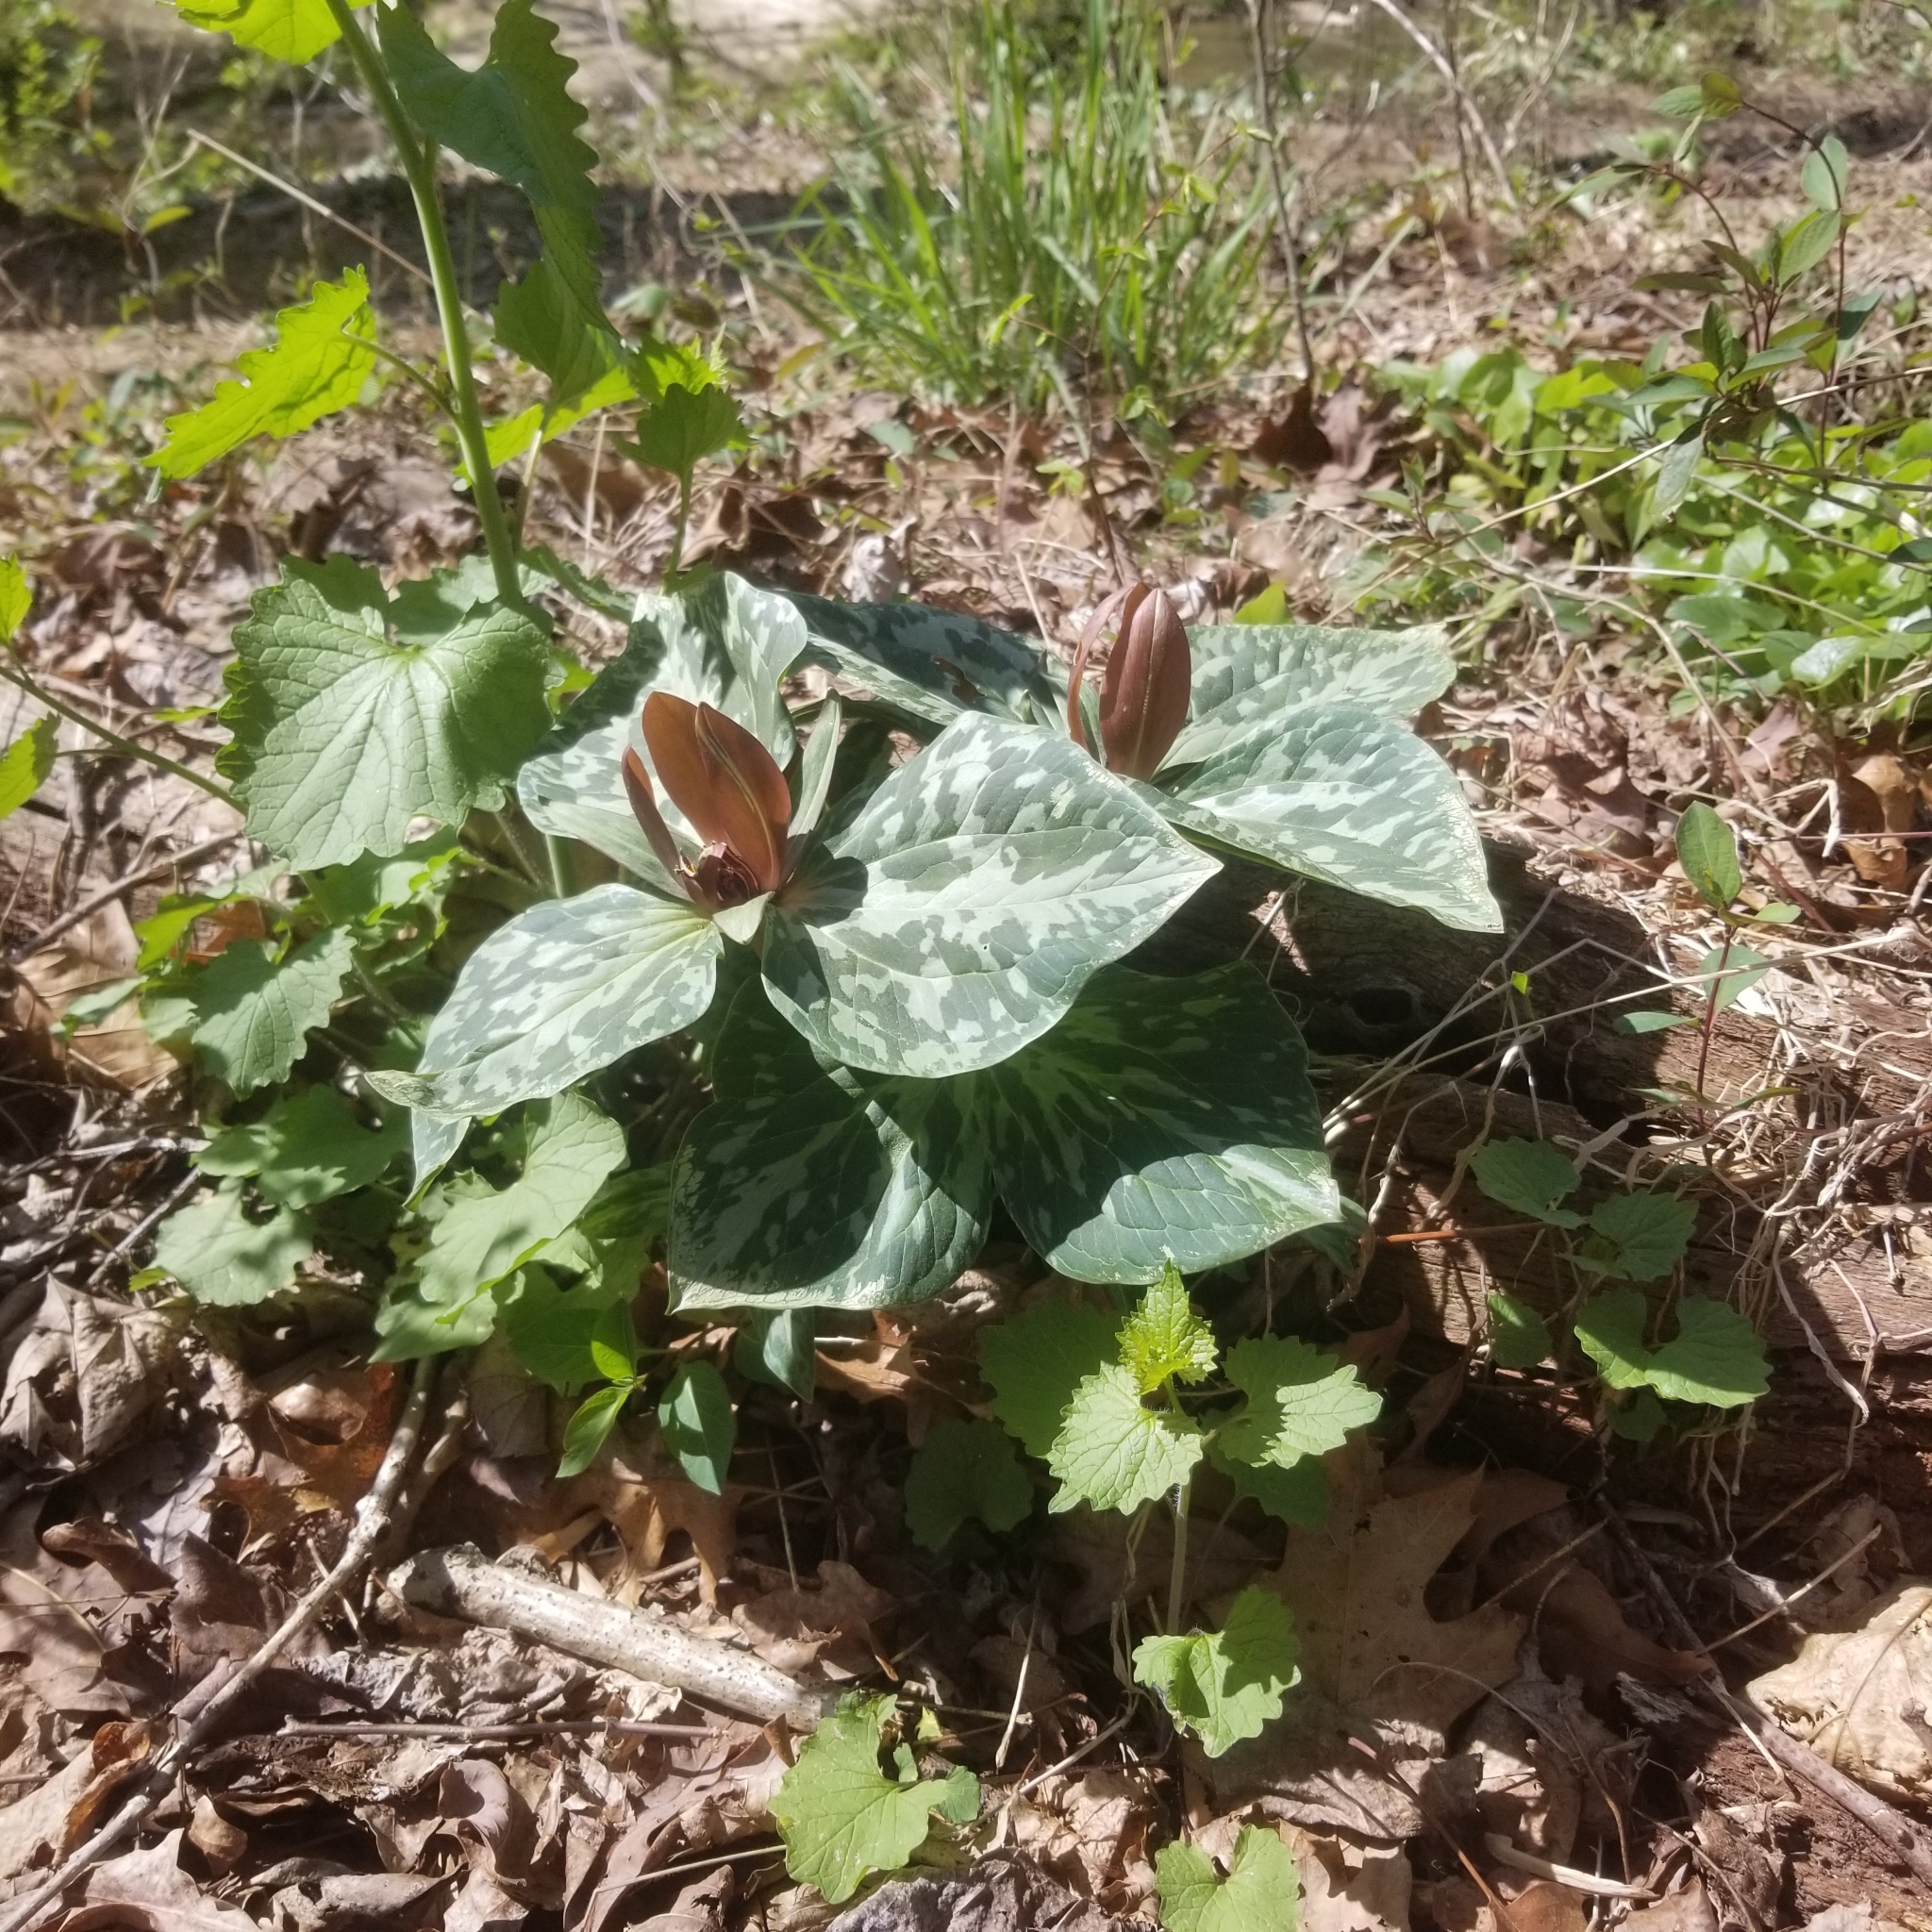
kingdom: Plantae
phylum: Tracheophyta
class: Liliopsida
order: Liliales
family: Melanthiaceae
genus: Trillium
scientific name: Trillium cuneatum
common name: Cuneate trillium
